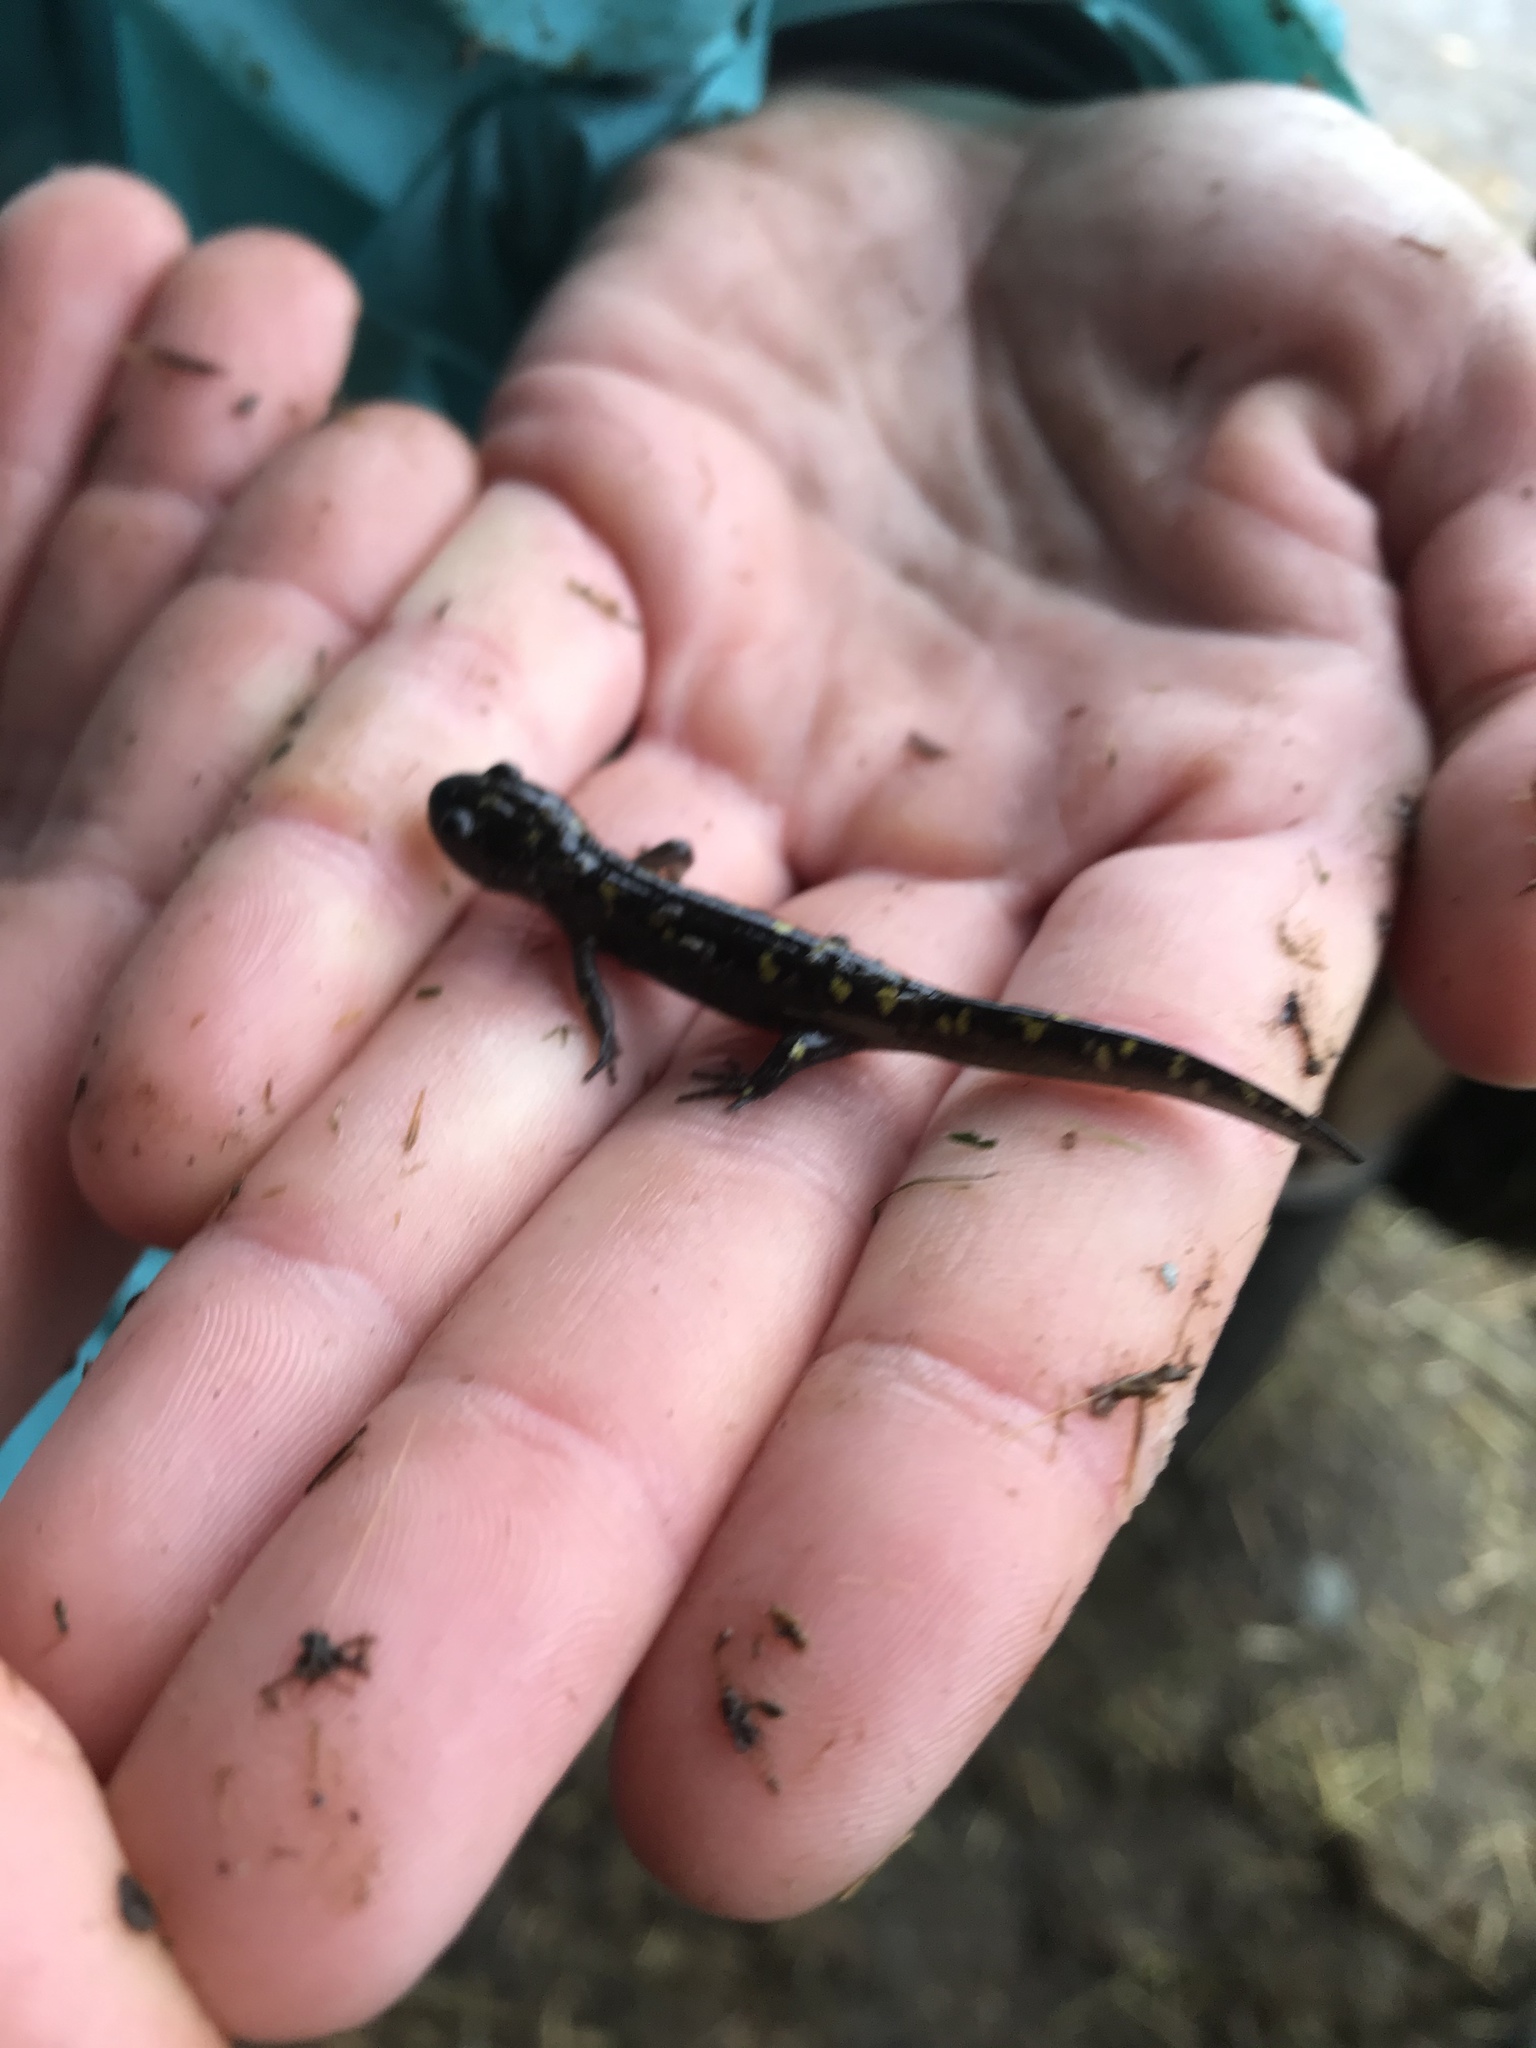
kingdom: Animalia
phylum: Chordata
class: Amphibia
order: Caudata
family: Ambystomatidae
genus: Ambystoma
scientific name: Ambystoma maculatum
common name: Spotted salamander
